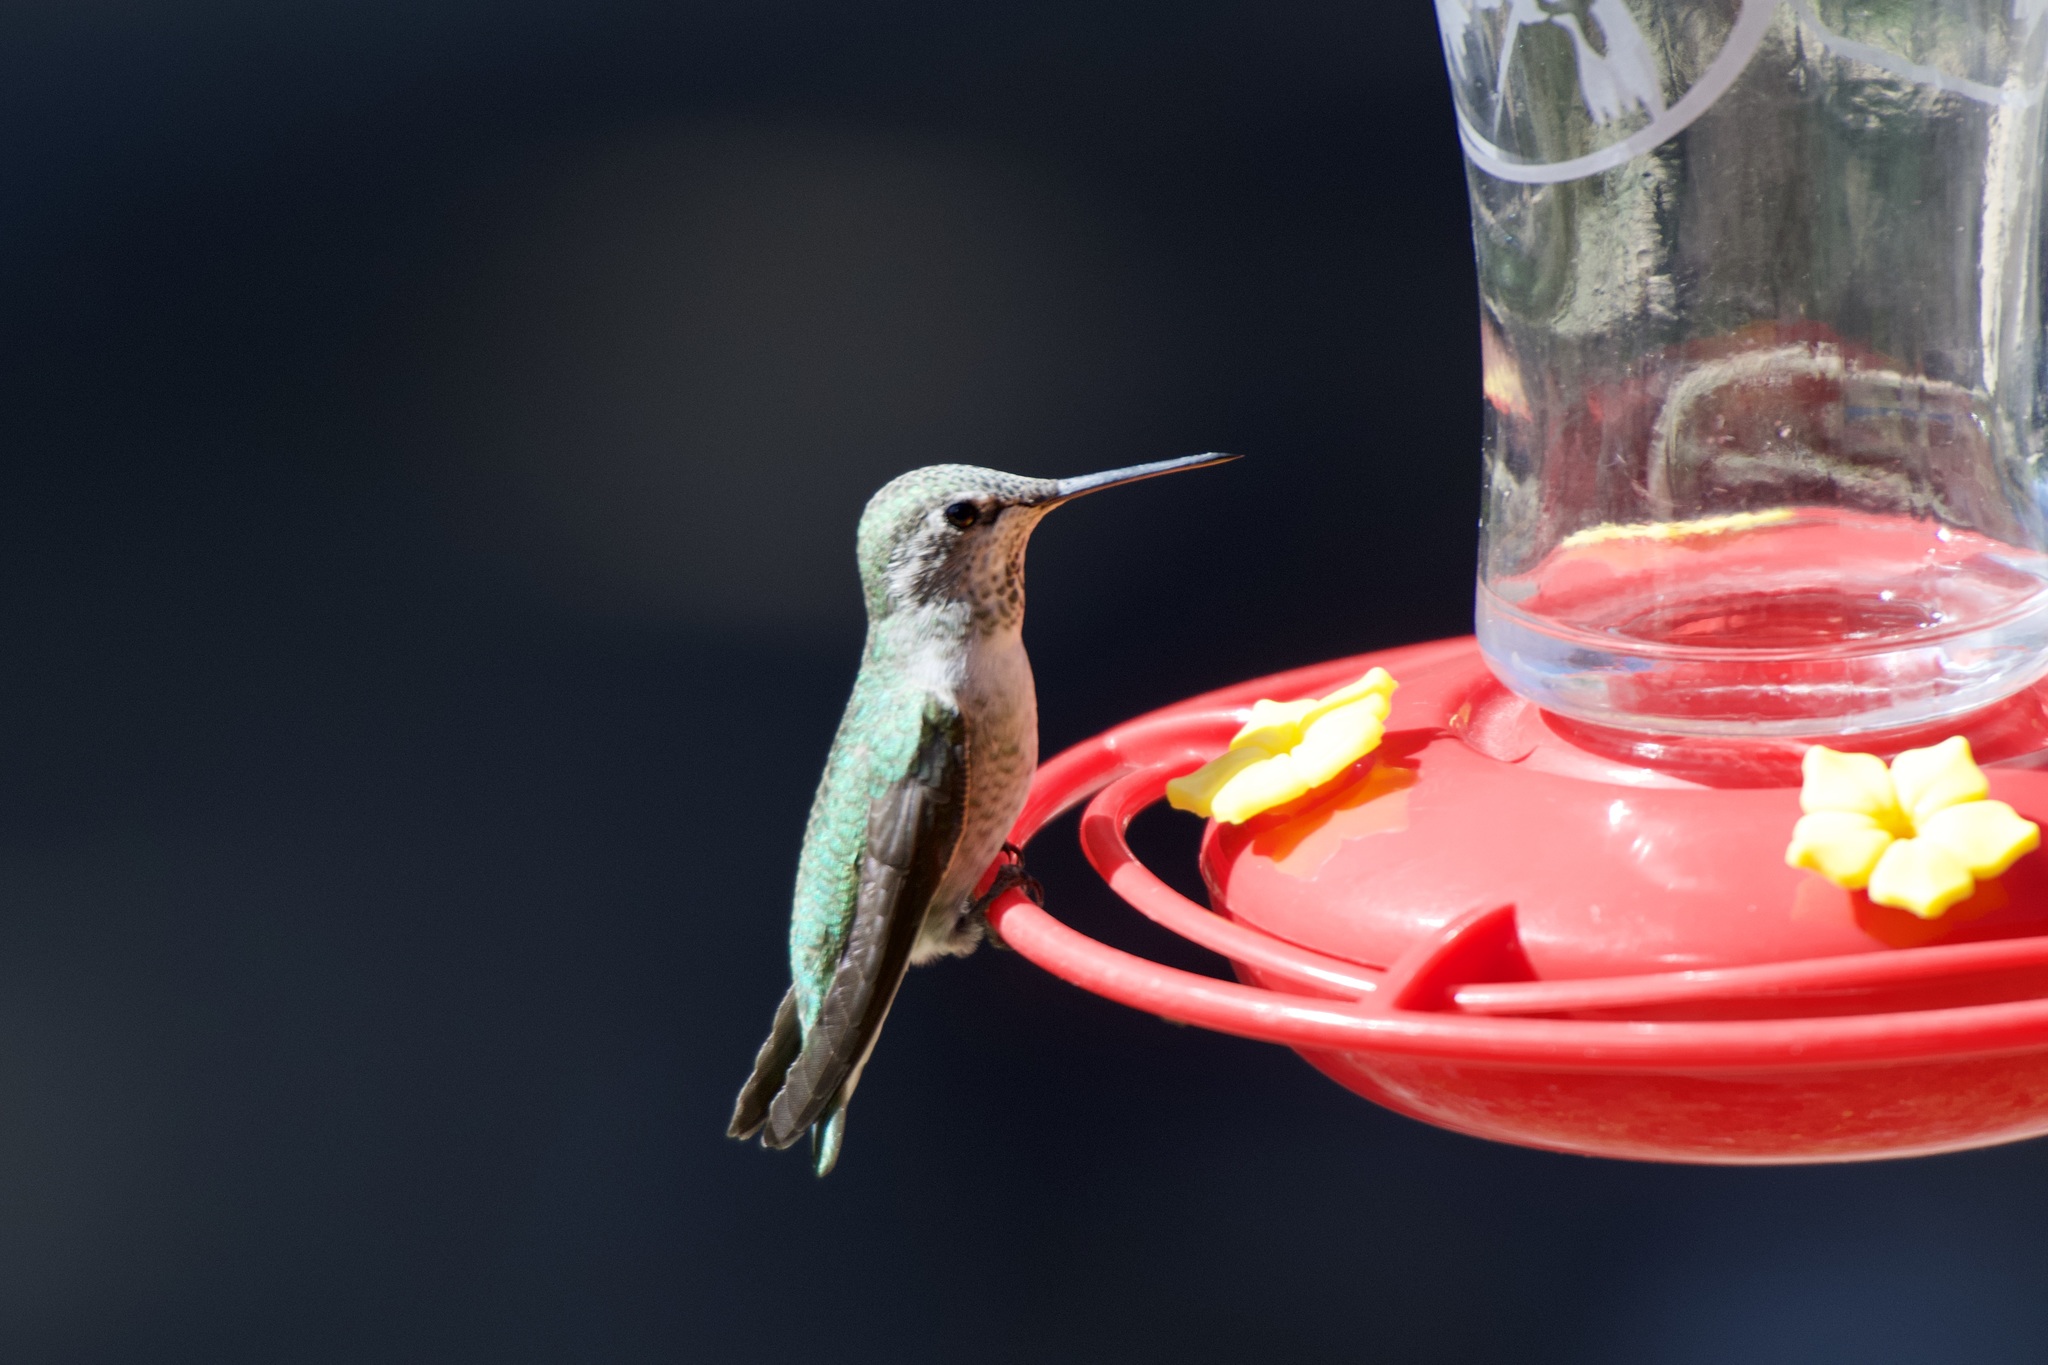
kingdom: Animalia
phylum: Chordata
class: Aves
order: Apodiformes
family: Trochilidae
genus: Calypte
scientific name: Calypte anna
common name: Anna's hummingbird
